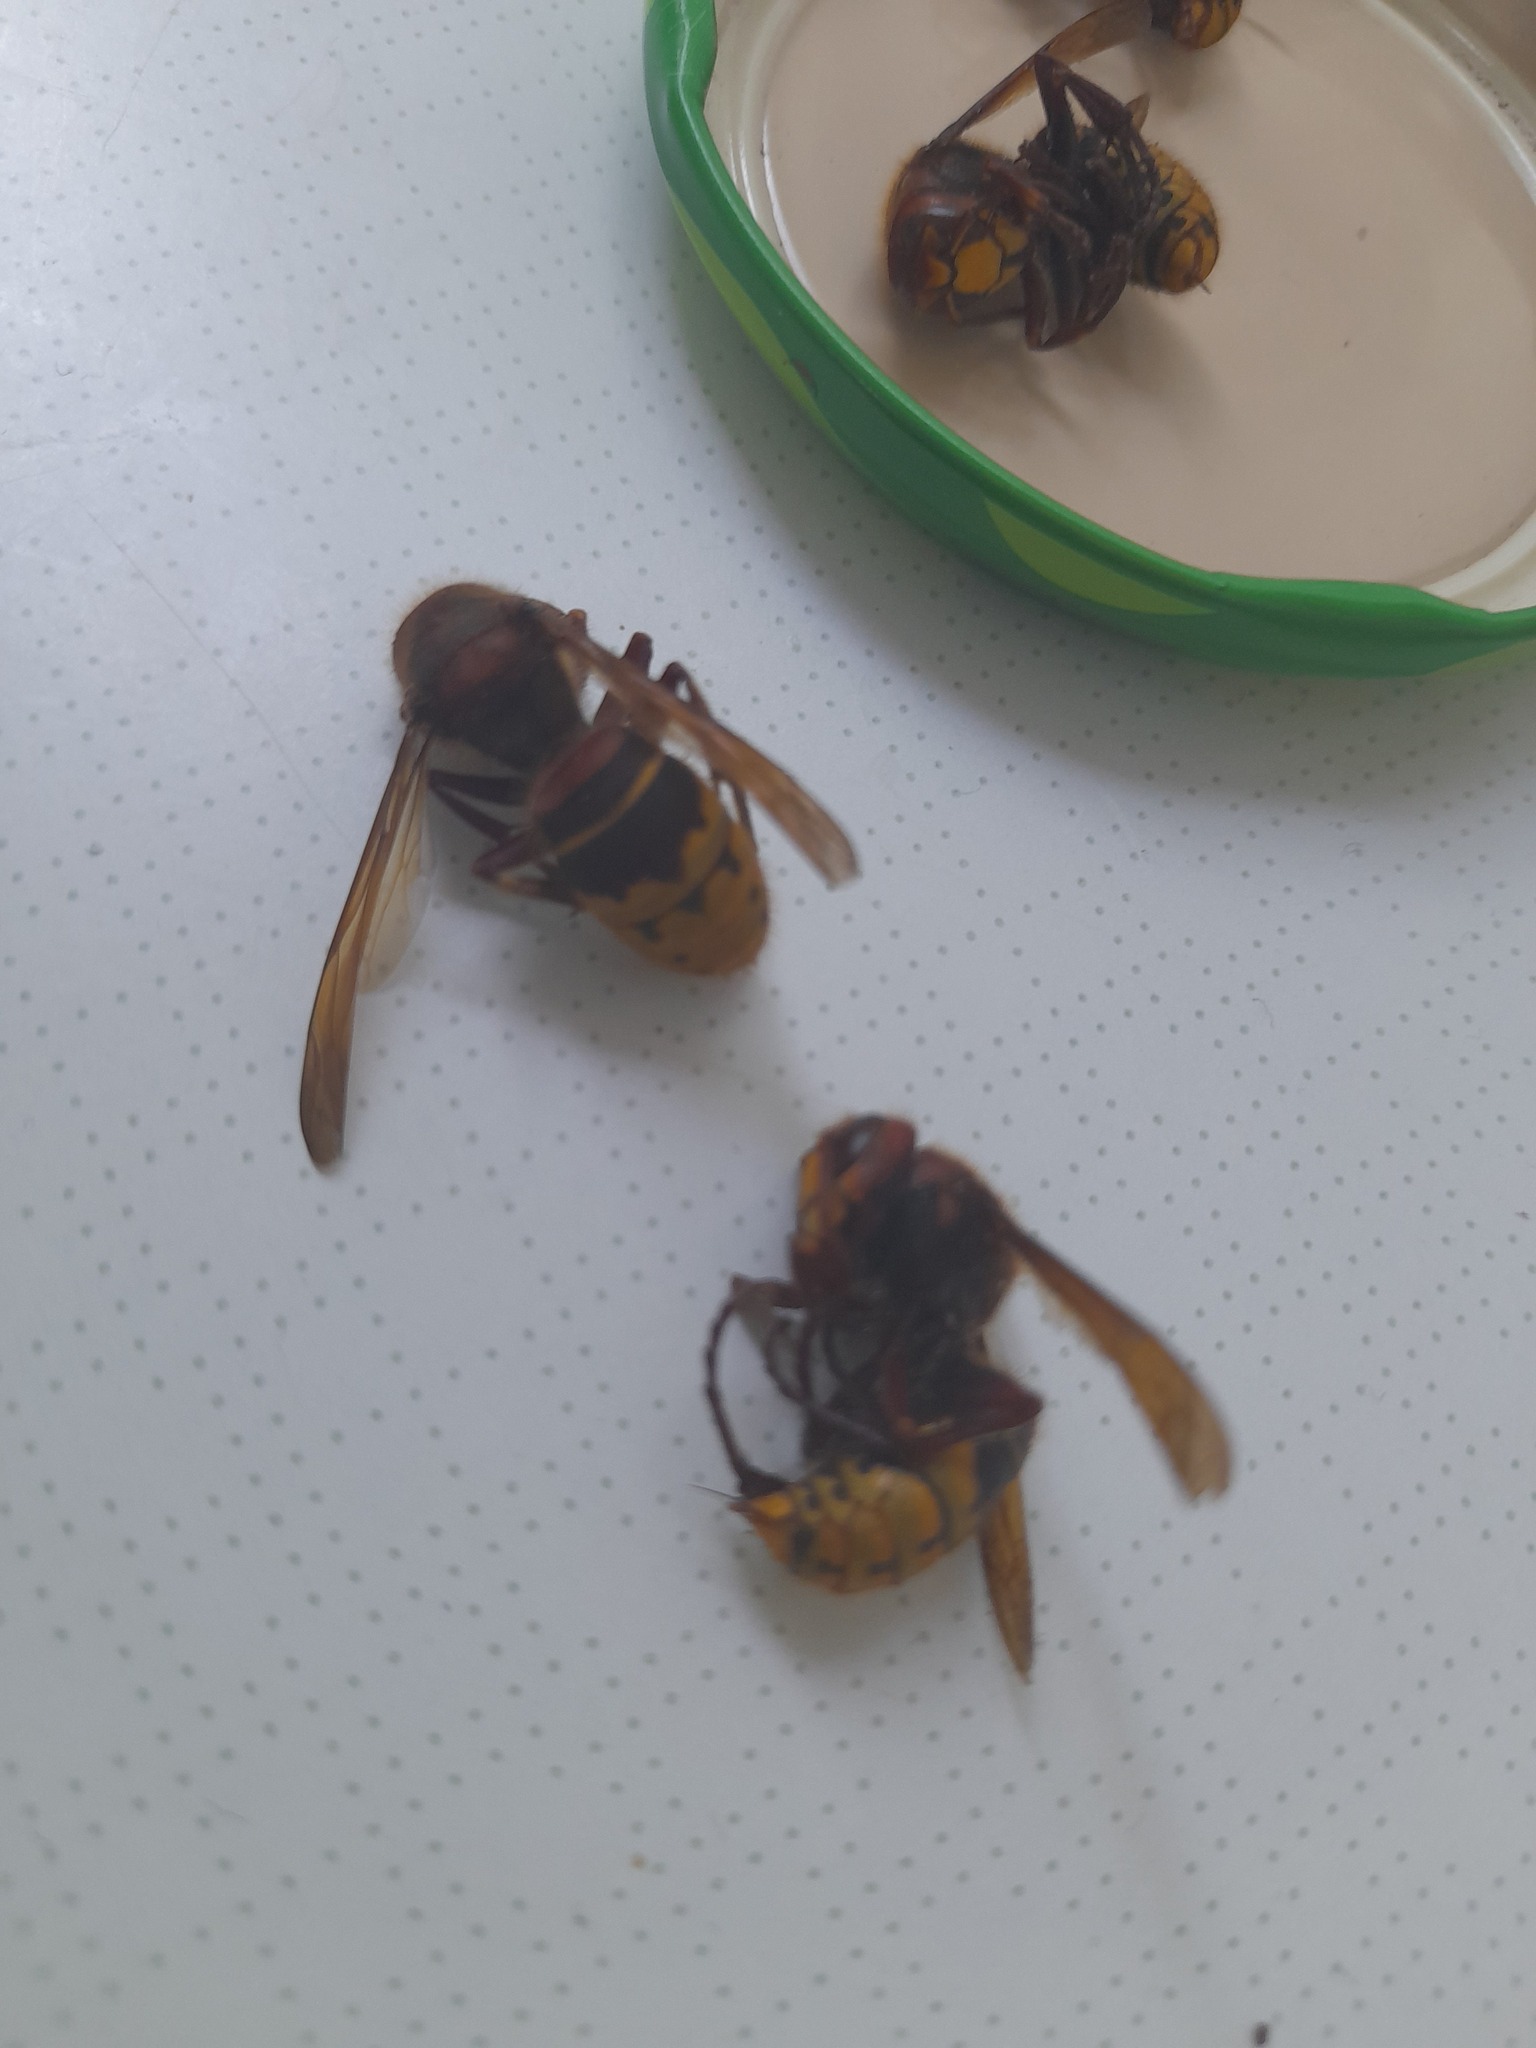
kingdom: Animalia
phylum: Arthropoda
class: Insecta
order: Hymenoptera
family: Vespidae
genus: Vespa
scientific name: Vespa crabro
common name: Hornet
